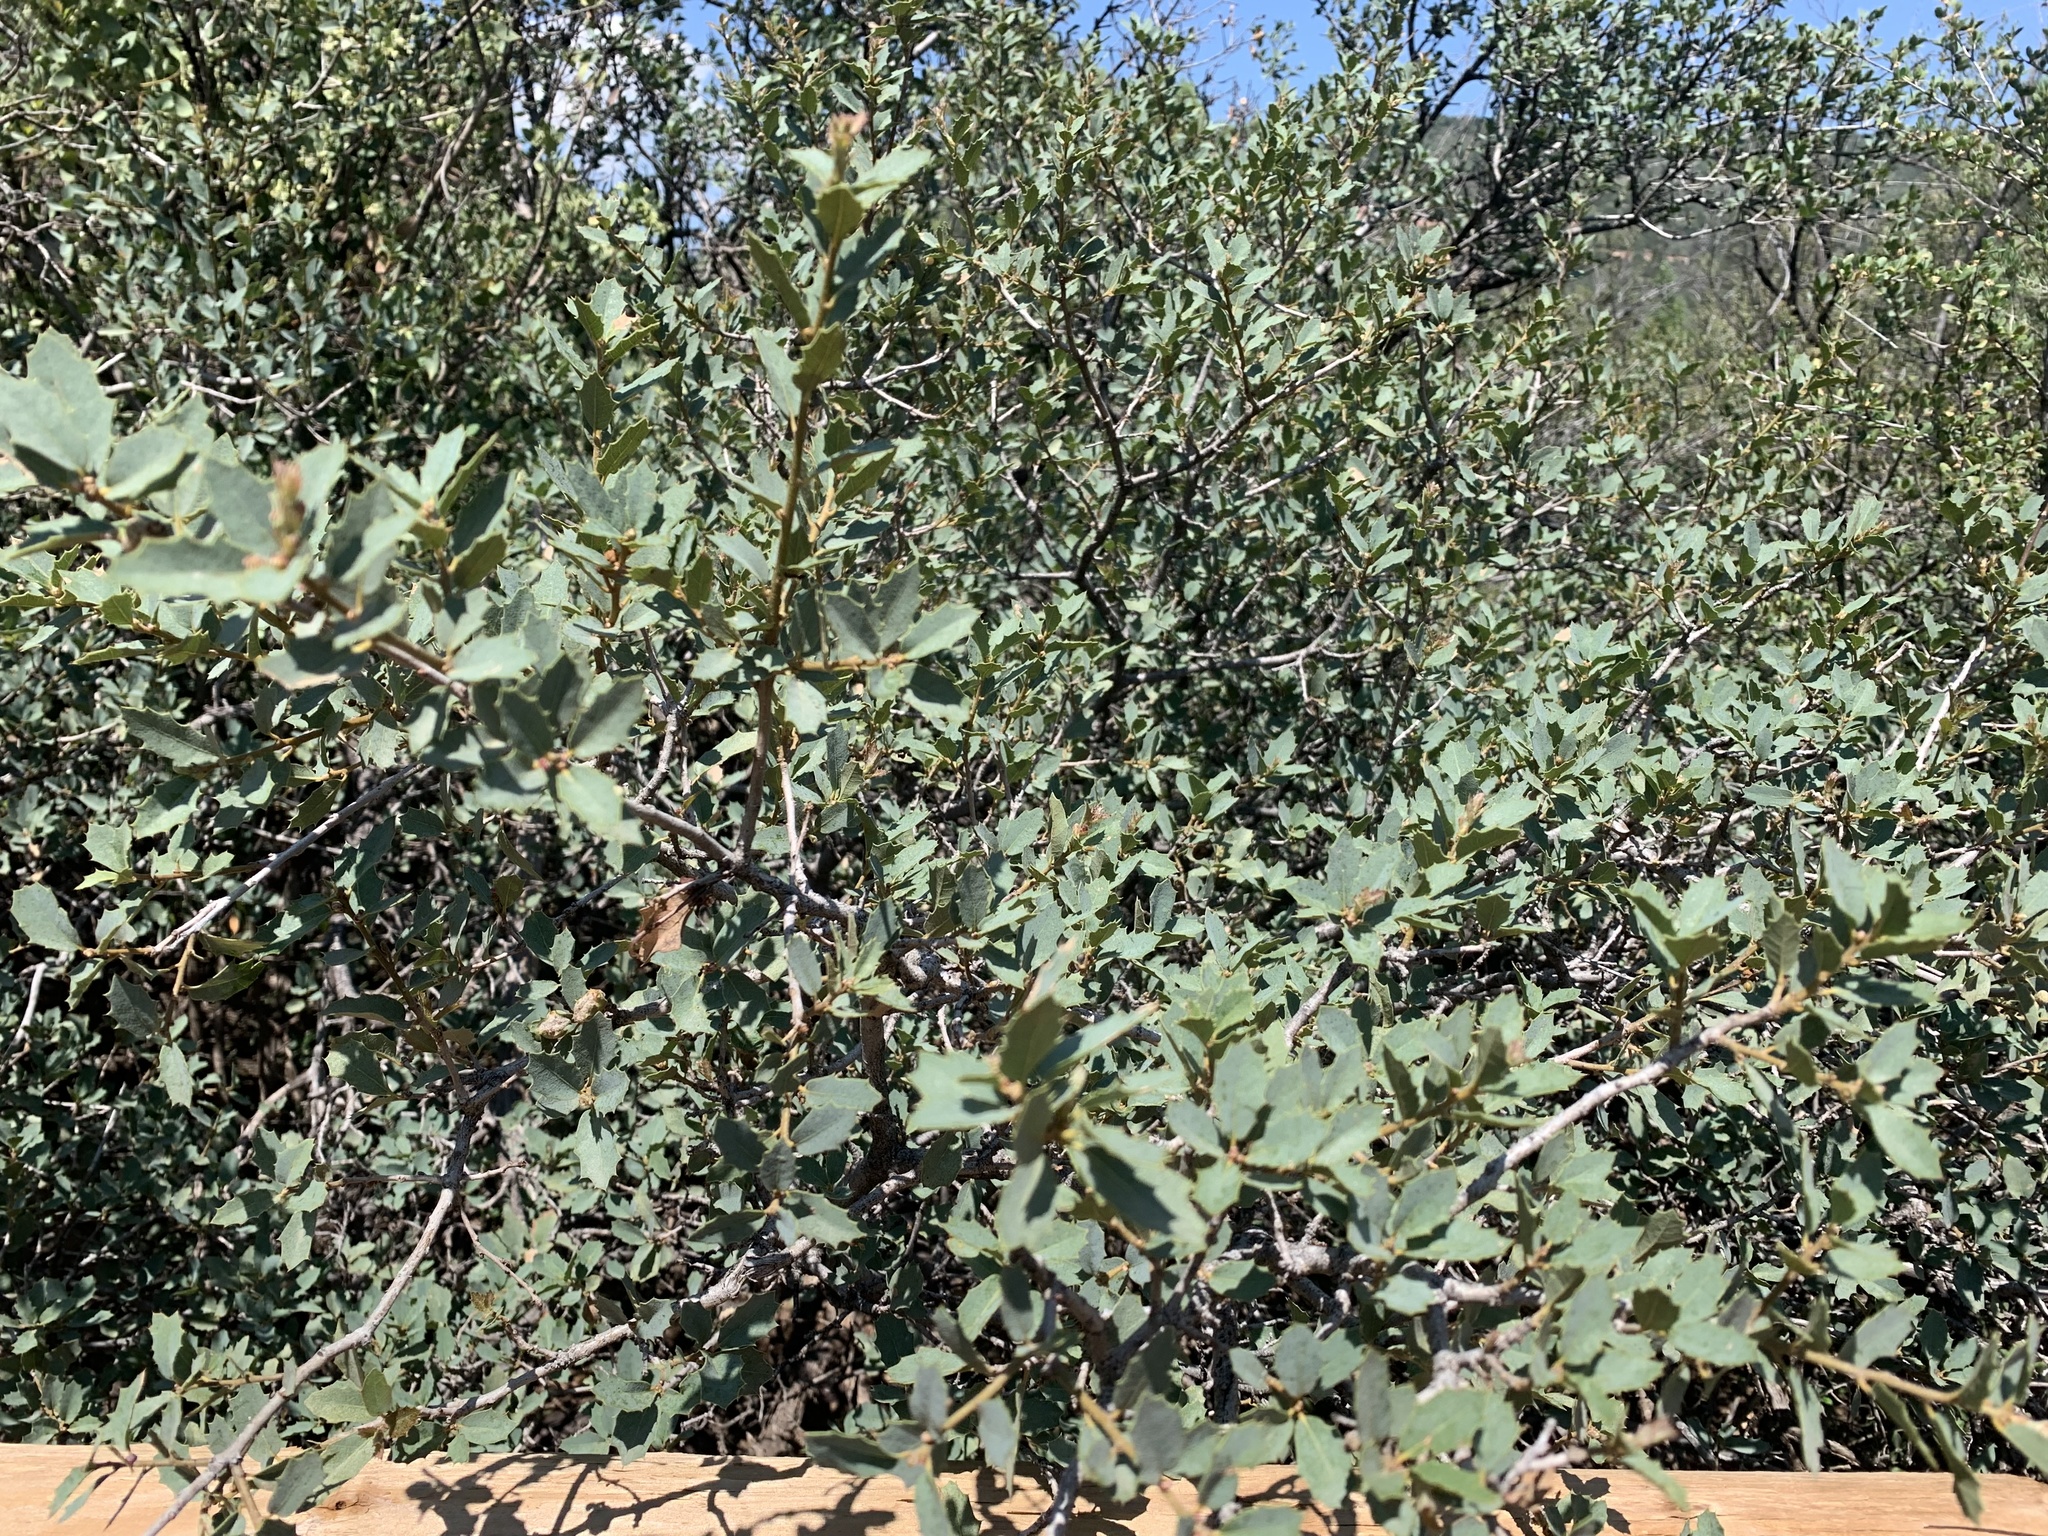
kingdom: Plantae
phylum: Tracheophyta
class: Magnoliopsida
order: Fagales
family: Fagaceae
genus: Quercus
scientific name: Quercus turbinella
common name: Sonoran scrub oak
